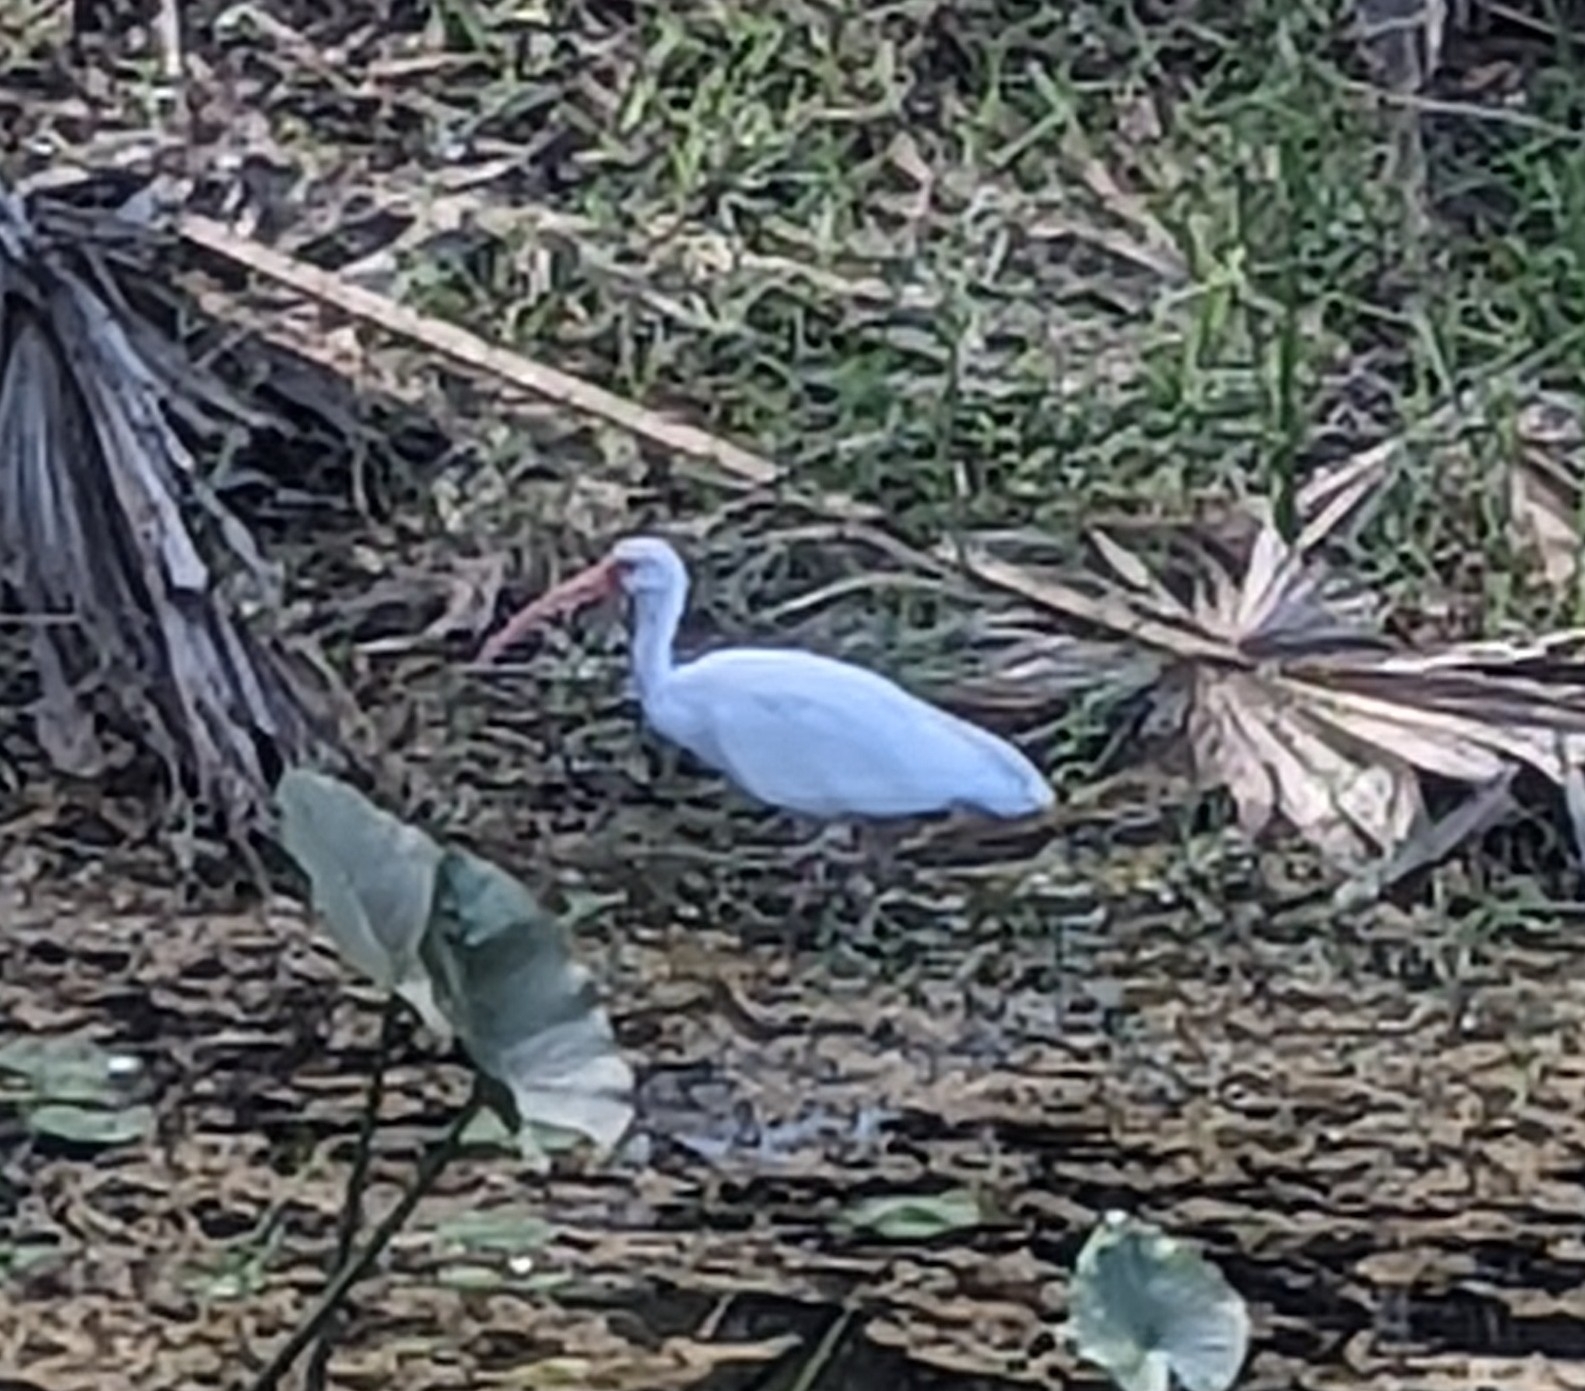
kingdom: Animalia
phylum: Chordata
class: Aves
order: Pelecaniformes
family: Threskiornithidae
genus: Eudocimus
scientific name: Eudocimus albus
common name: White ibis
